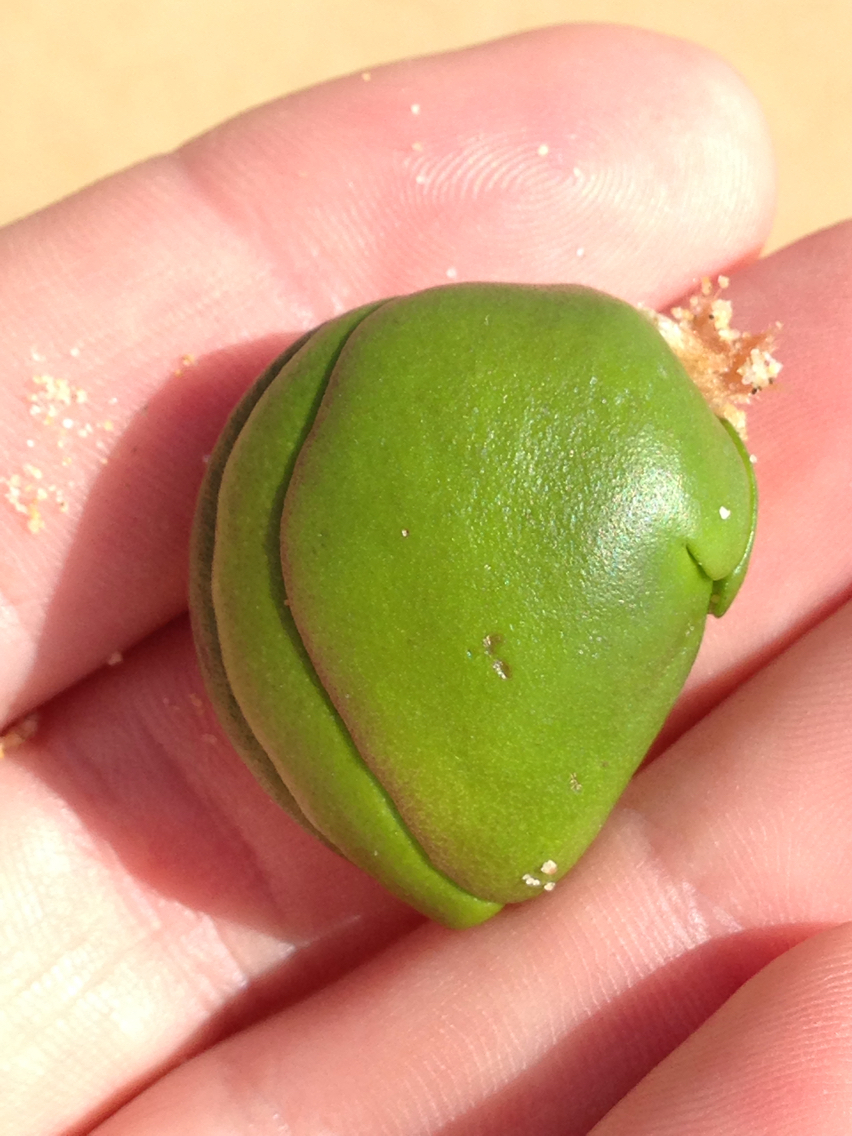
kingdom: Plantae
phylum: Tracheophyta
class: Magnoliopsida
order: Lamiales
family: Acanthaceae
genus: Avicennia
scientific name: Avicennia marina
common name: Gray mangrove
